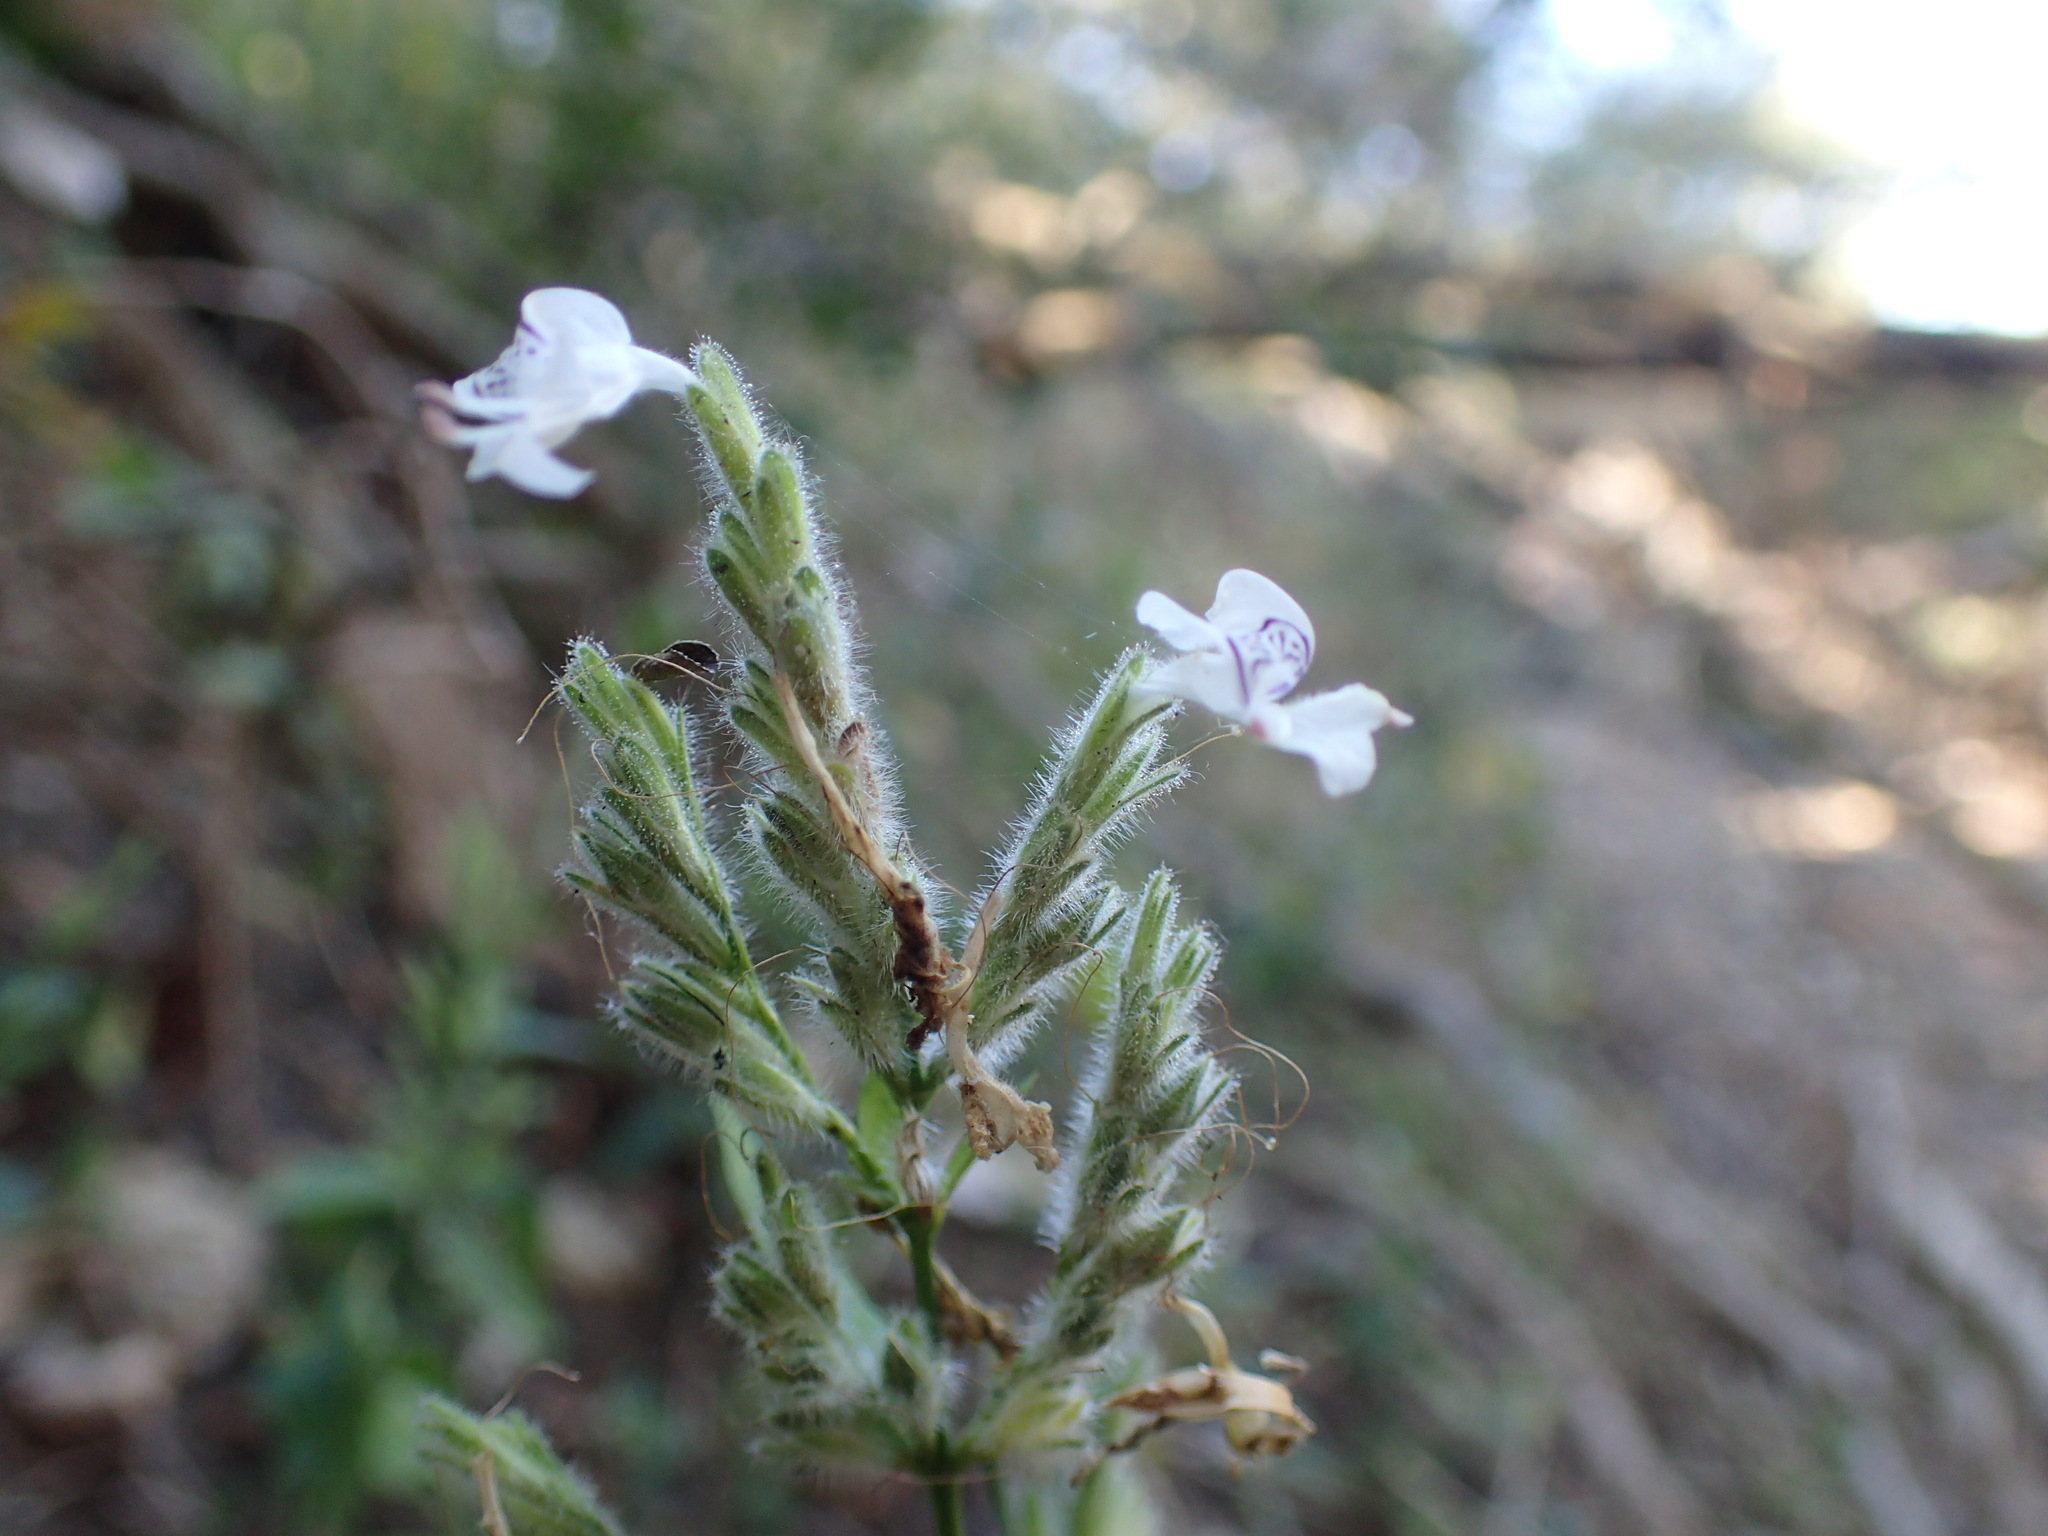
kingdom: Plantae
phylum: Tracheophyta
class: Magnoliopsida
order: Lamiales
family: Acanthaceae
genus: Hypoestes
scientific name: Hypoestes forskaolii
